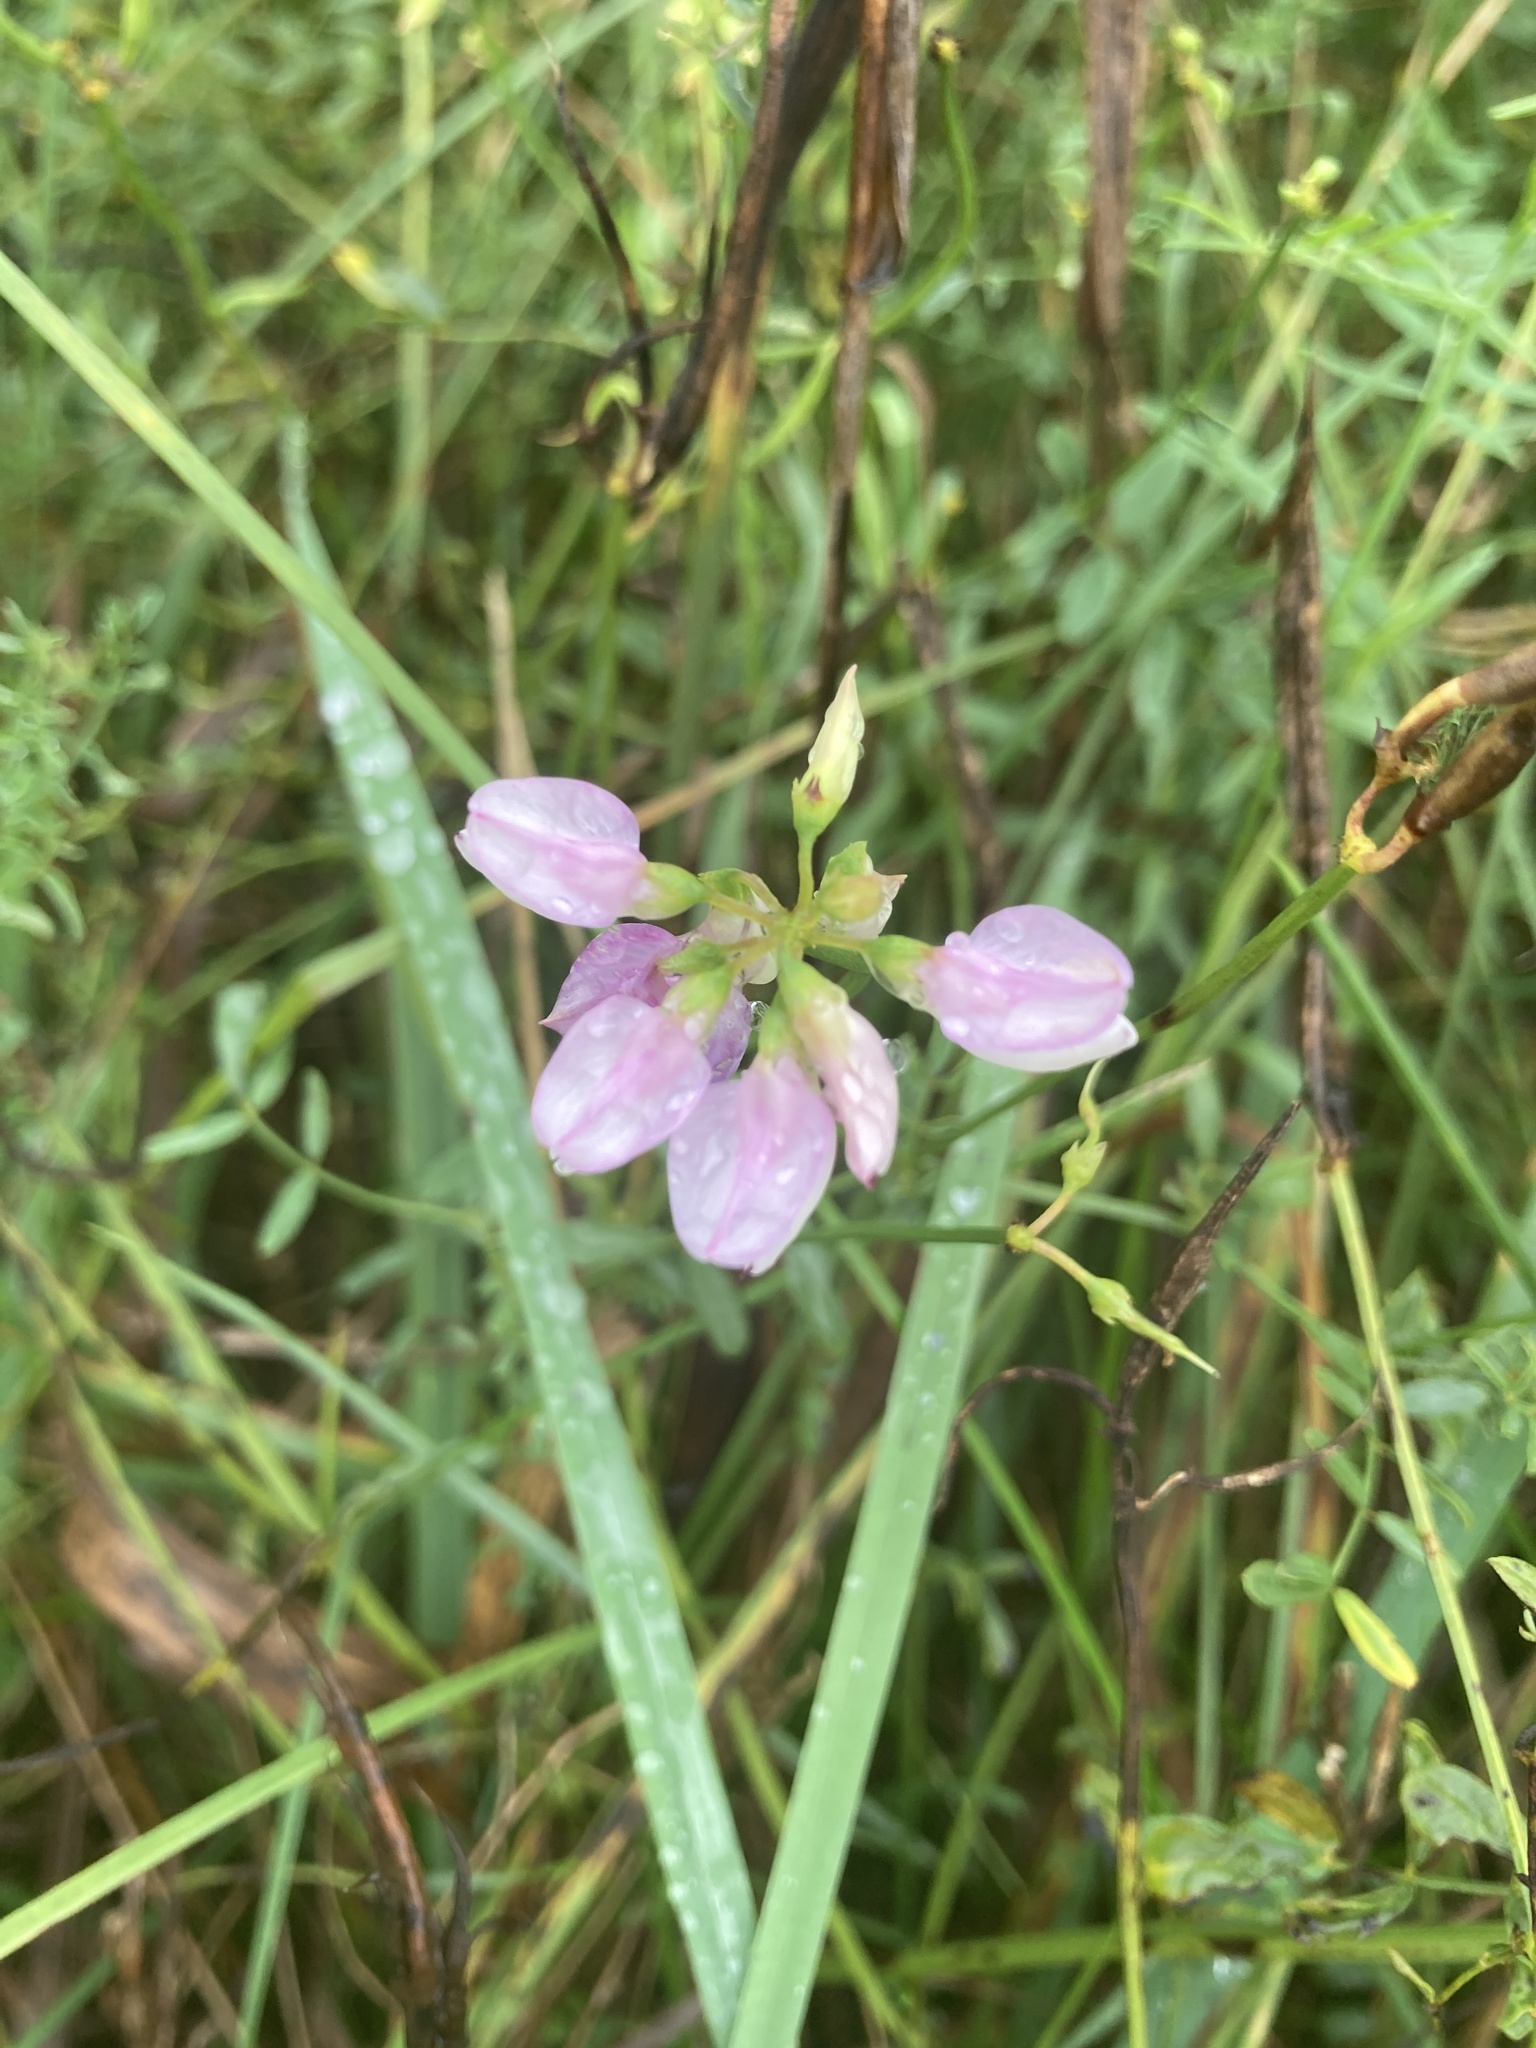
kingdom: Plantae
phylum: Tracheophyta
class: Magnoliopsida
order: Fabales
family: Fabaceae
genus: Coronilla
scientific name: Coronilla varia
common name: Crownvetch
